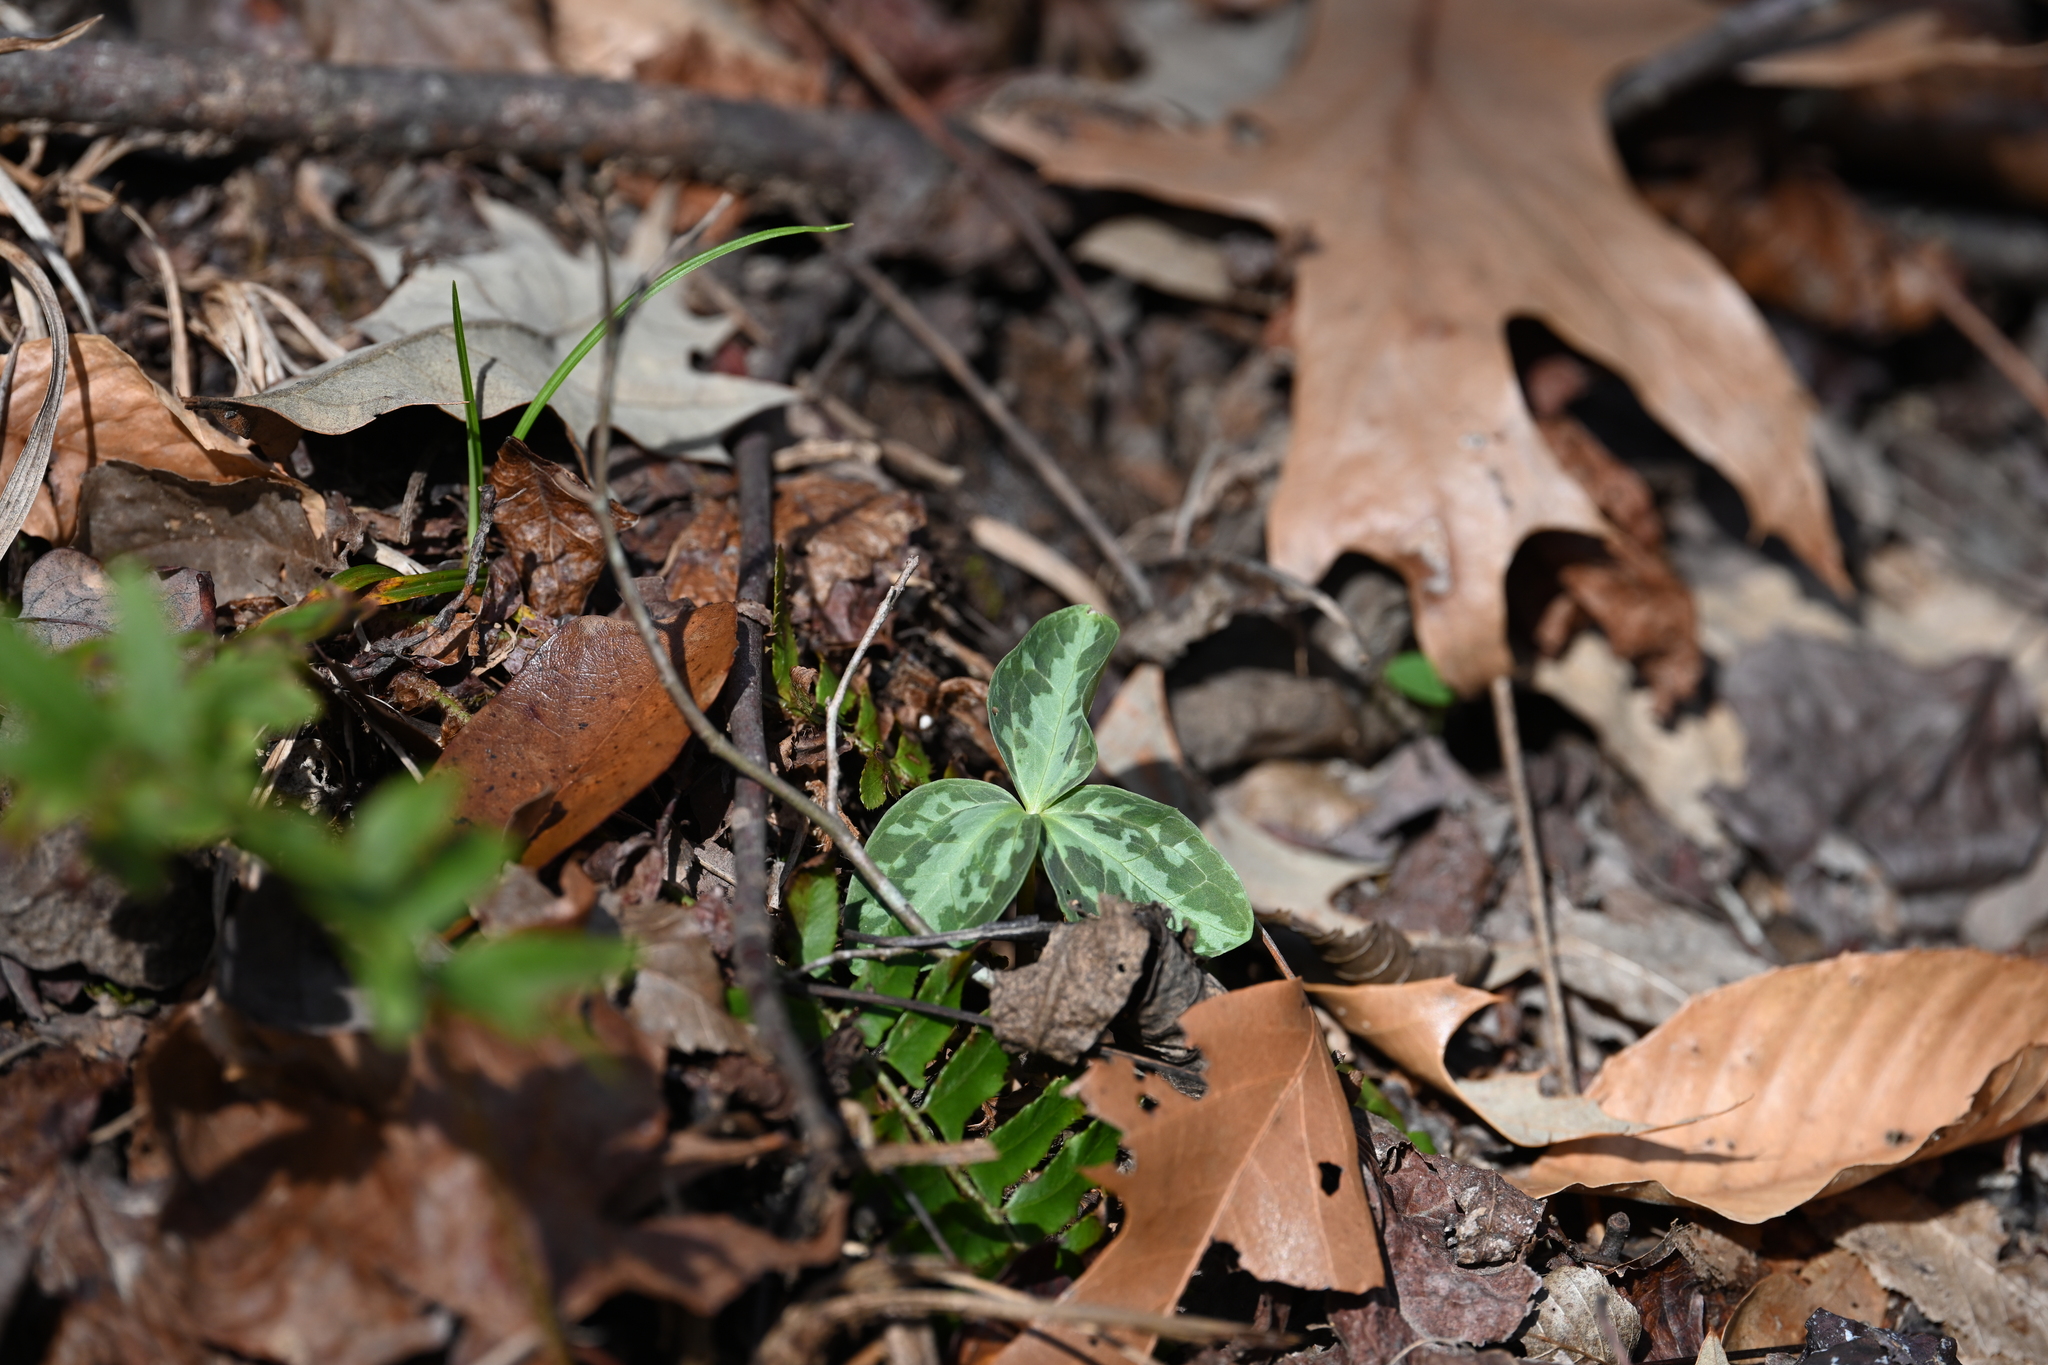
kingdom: Plantae
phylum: Tracheophyta
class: Liliopsida
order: Liliales
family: Melanthiaceae
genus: Trillium
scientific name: Trillium foetidissimum
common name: Mississippi river trillium
